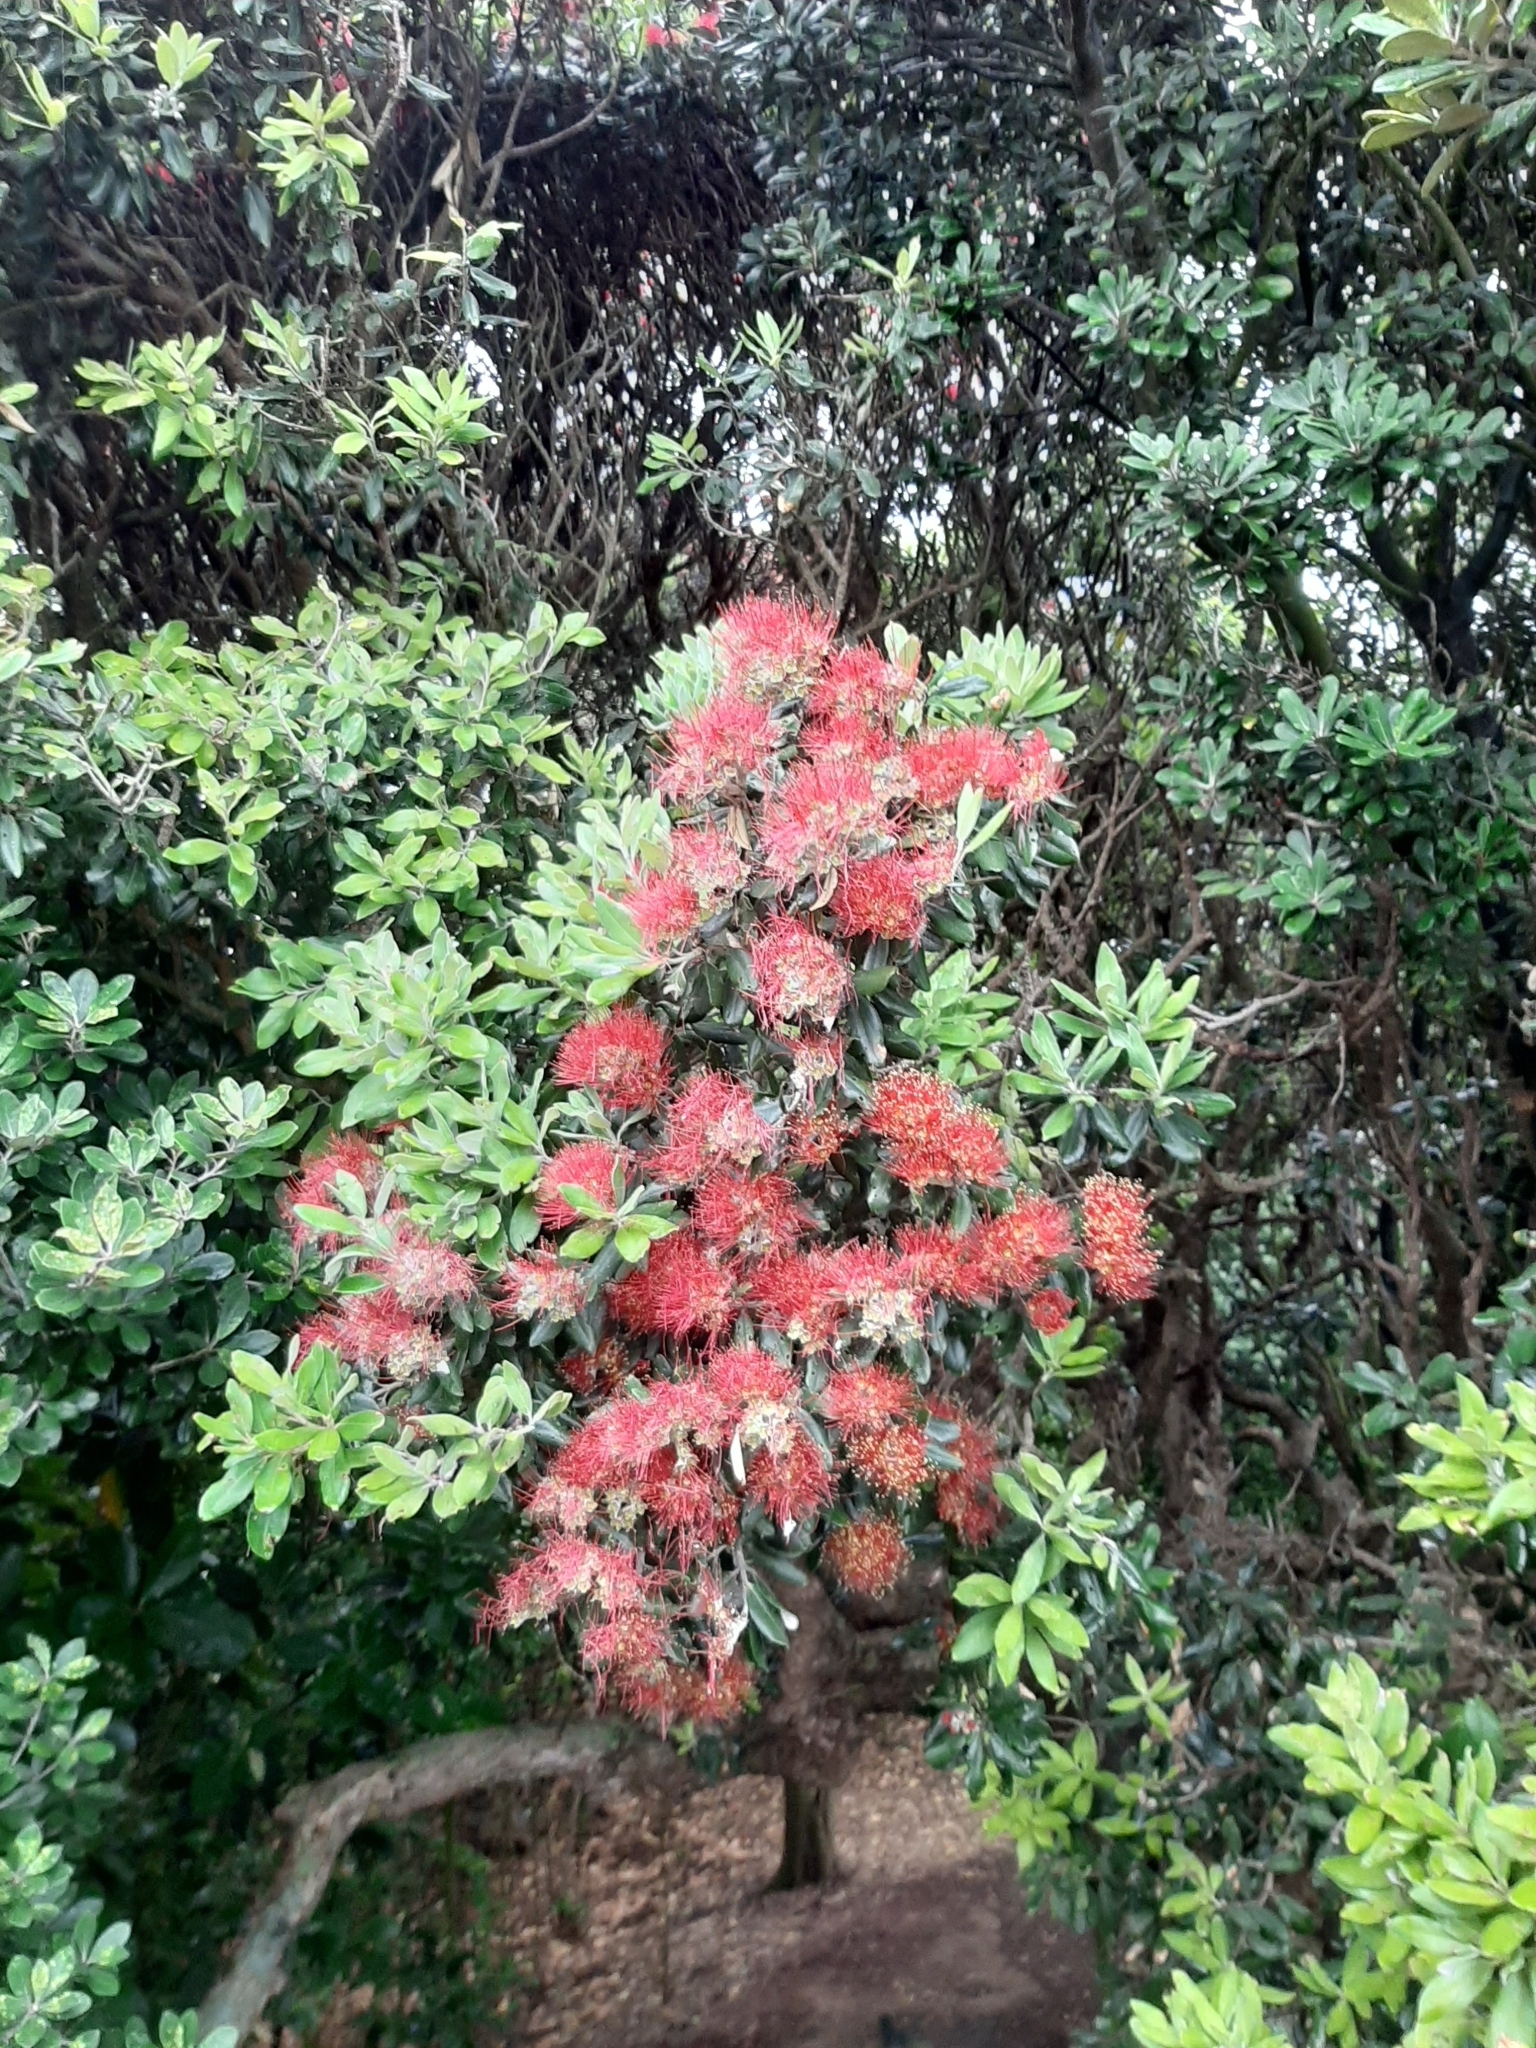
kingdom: Plantae
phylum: Tracheophyta
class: Magnoliopsida
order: Myrtales
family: Myrtaceae
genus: Metrosideros
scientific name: Metrosideros excelsa
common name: New zealand christmastree
